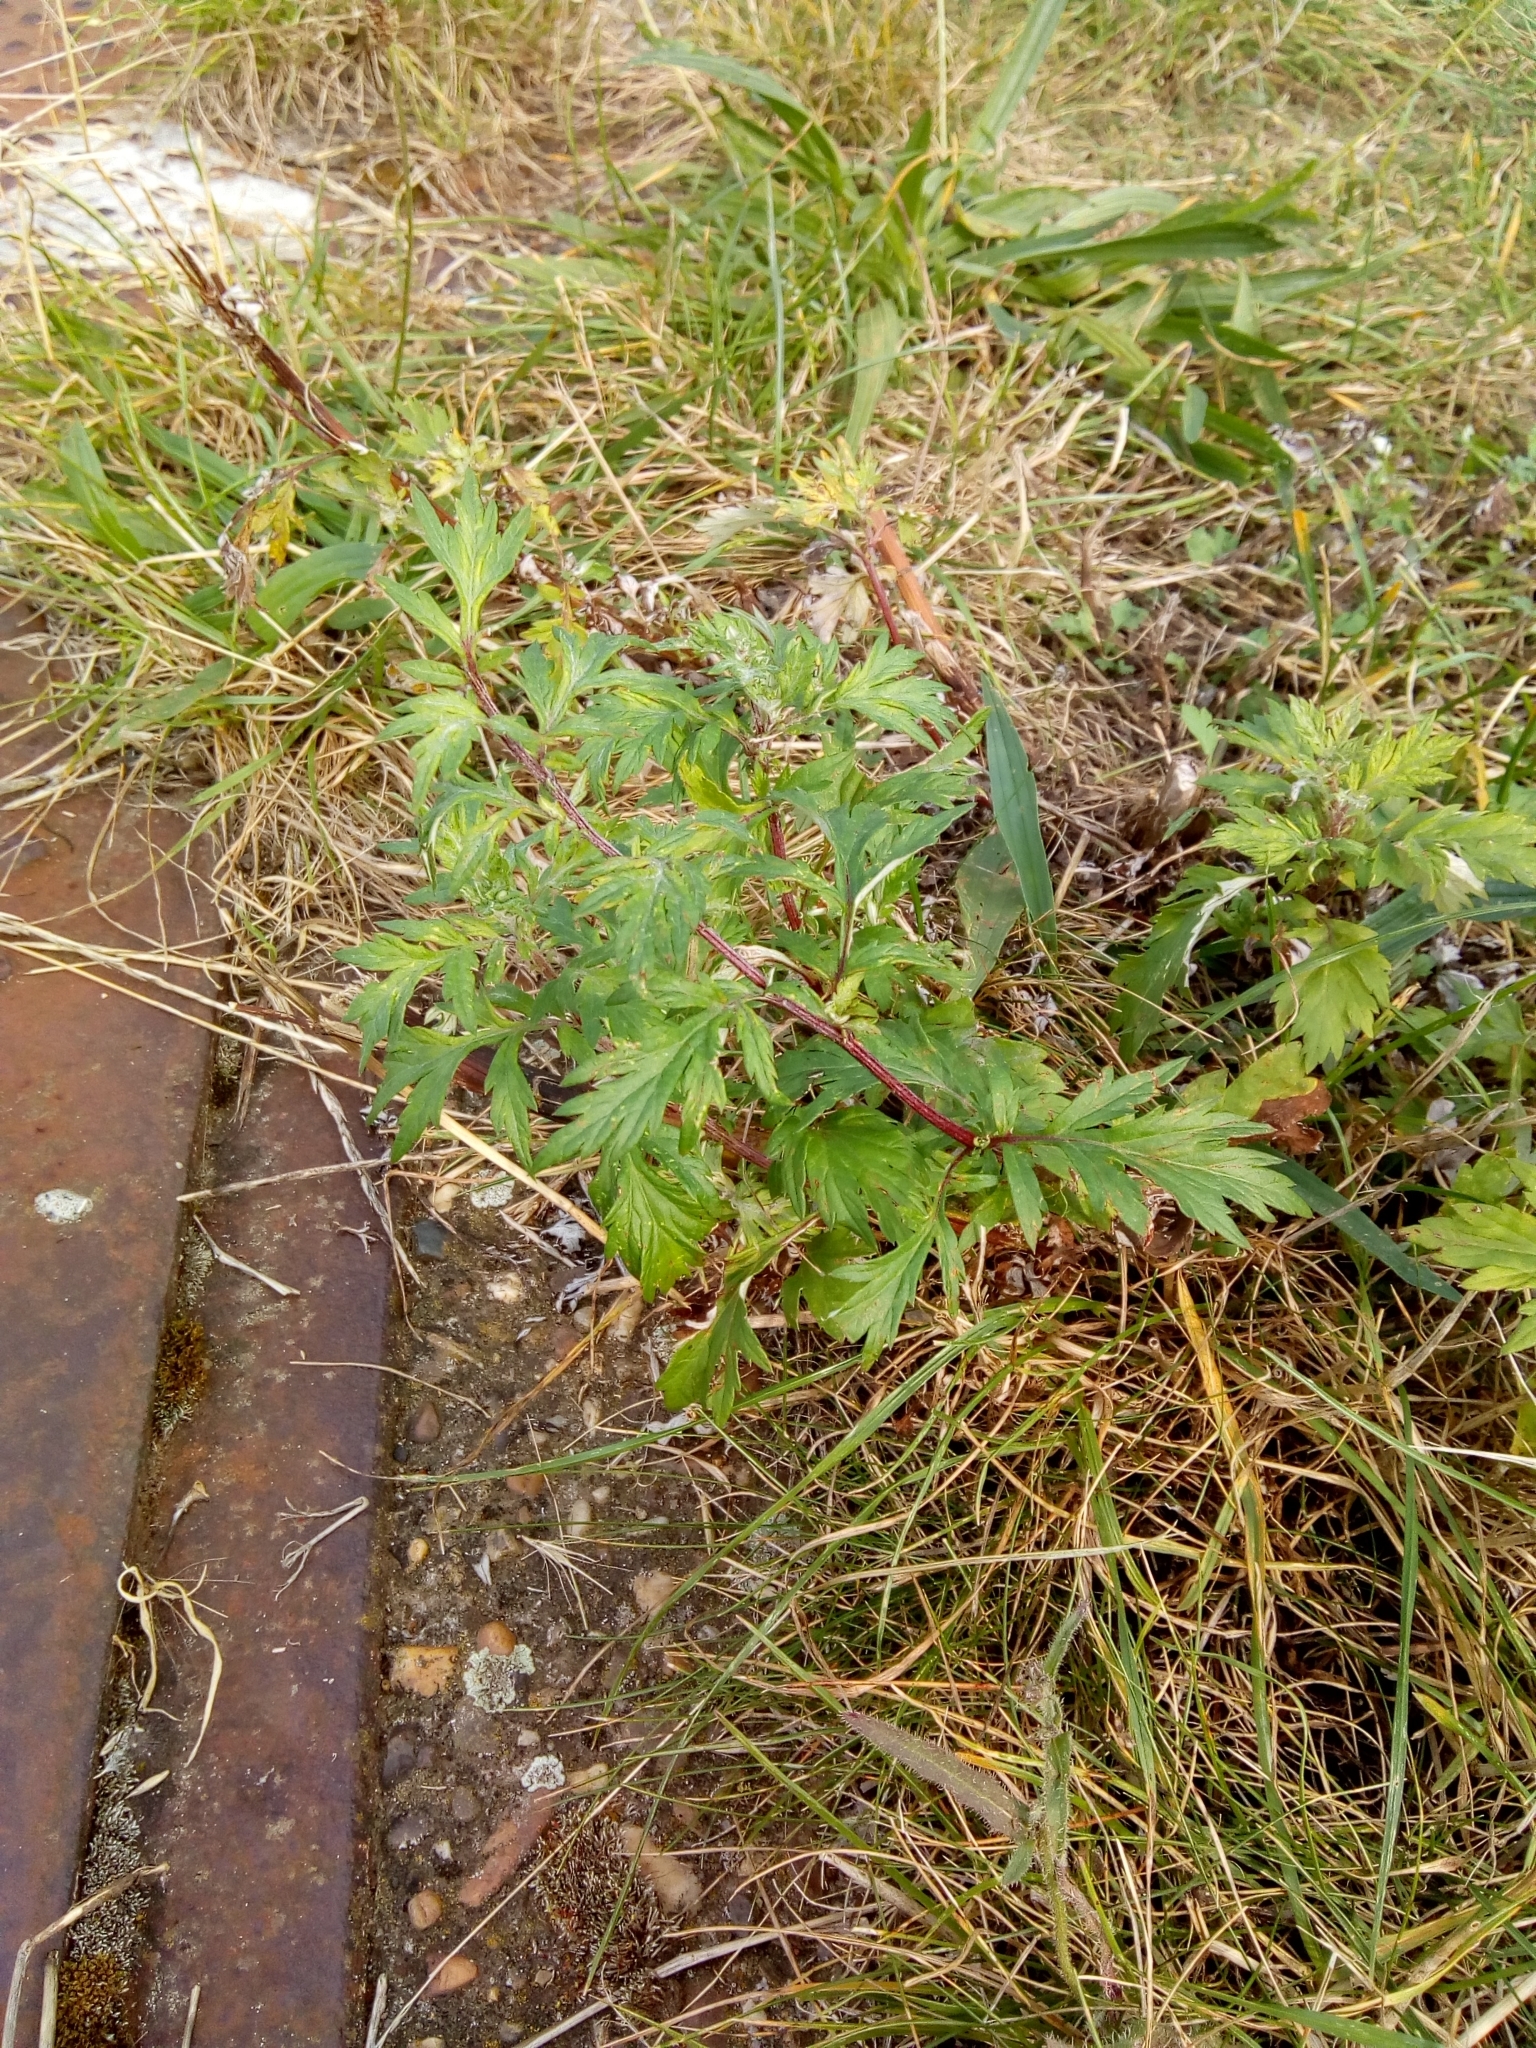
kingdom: Plantae
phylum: Tracheophyta
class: Magnoliopsida
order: Asterales
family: Asteraceae
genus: Artemisia
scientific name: Artemisia vulgaris
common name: Mugwort
